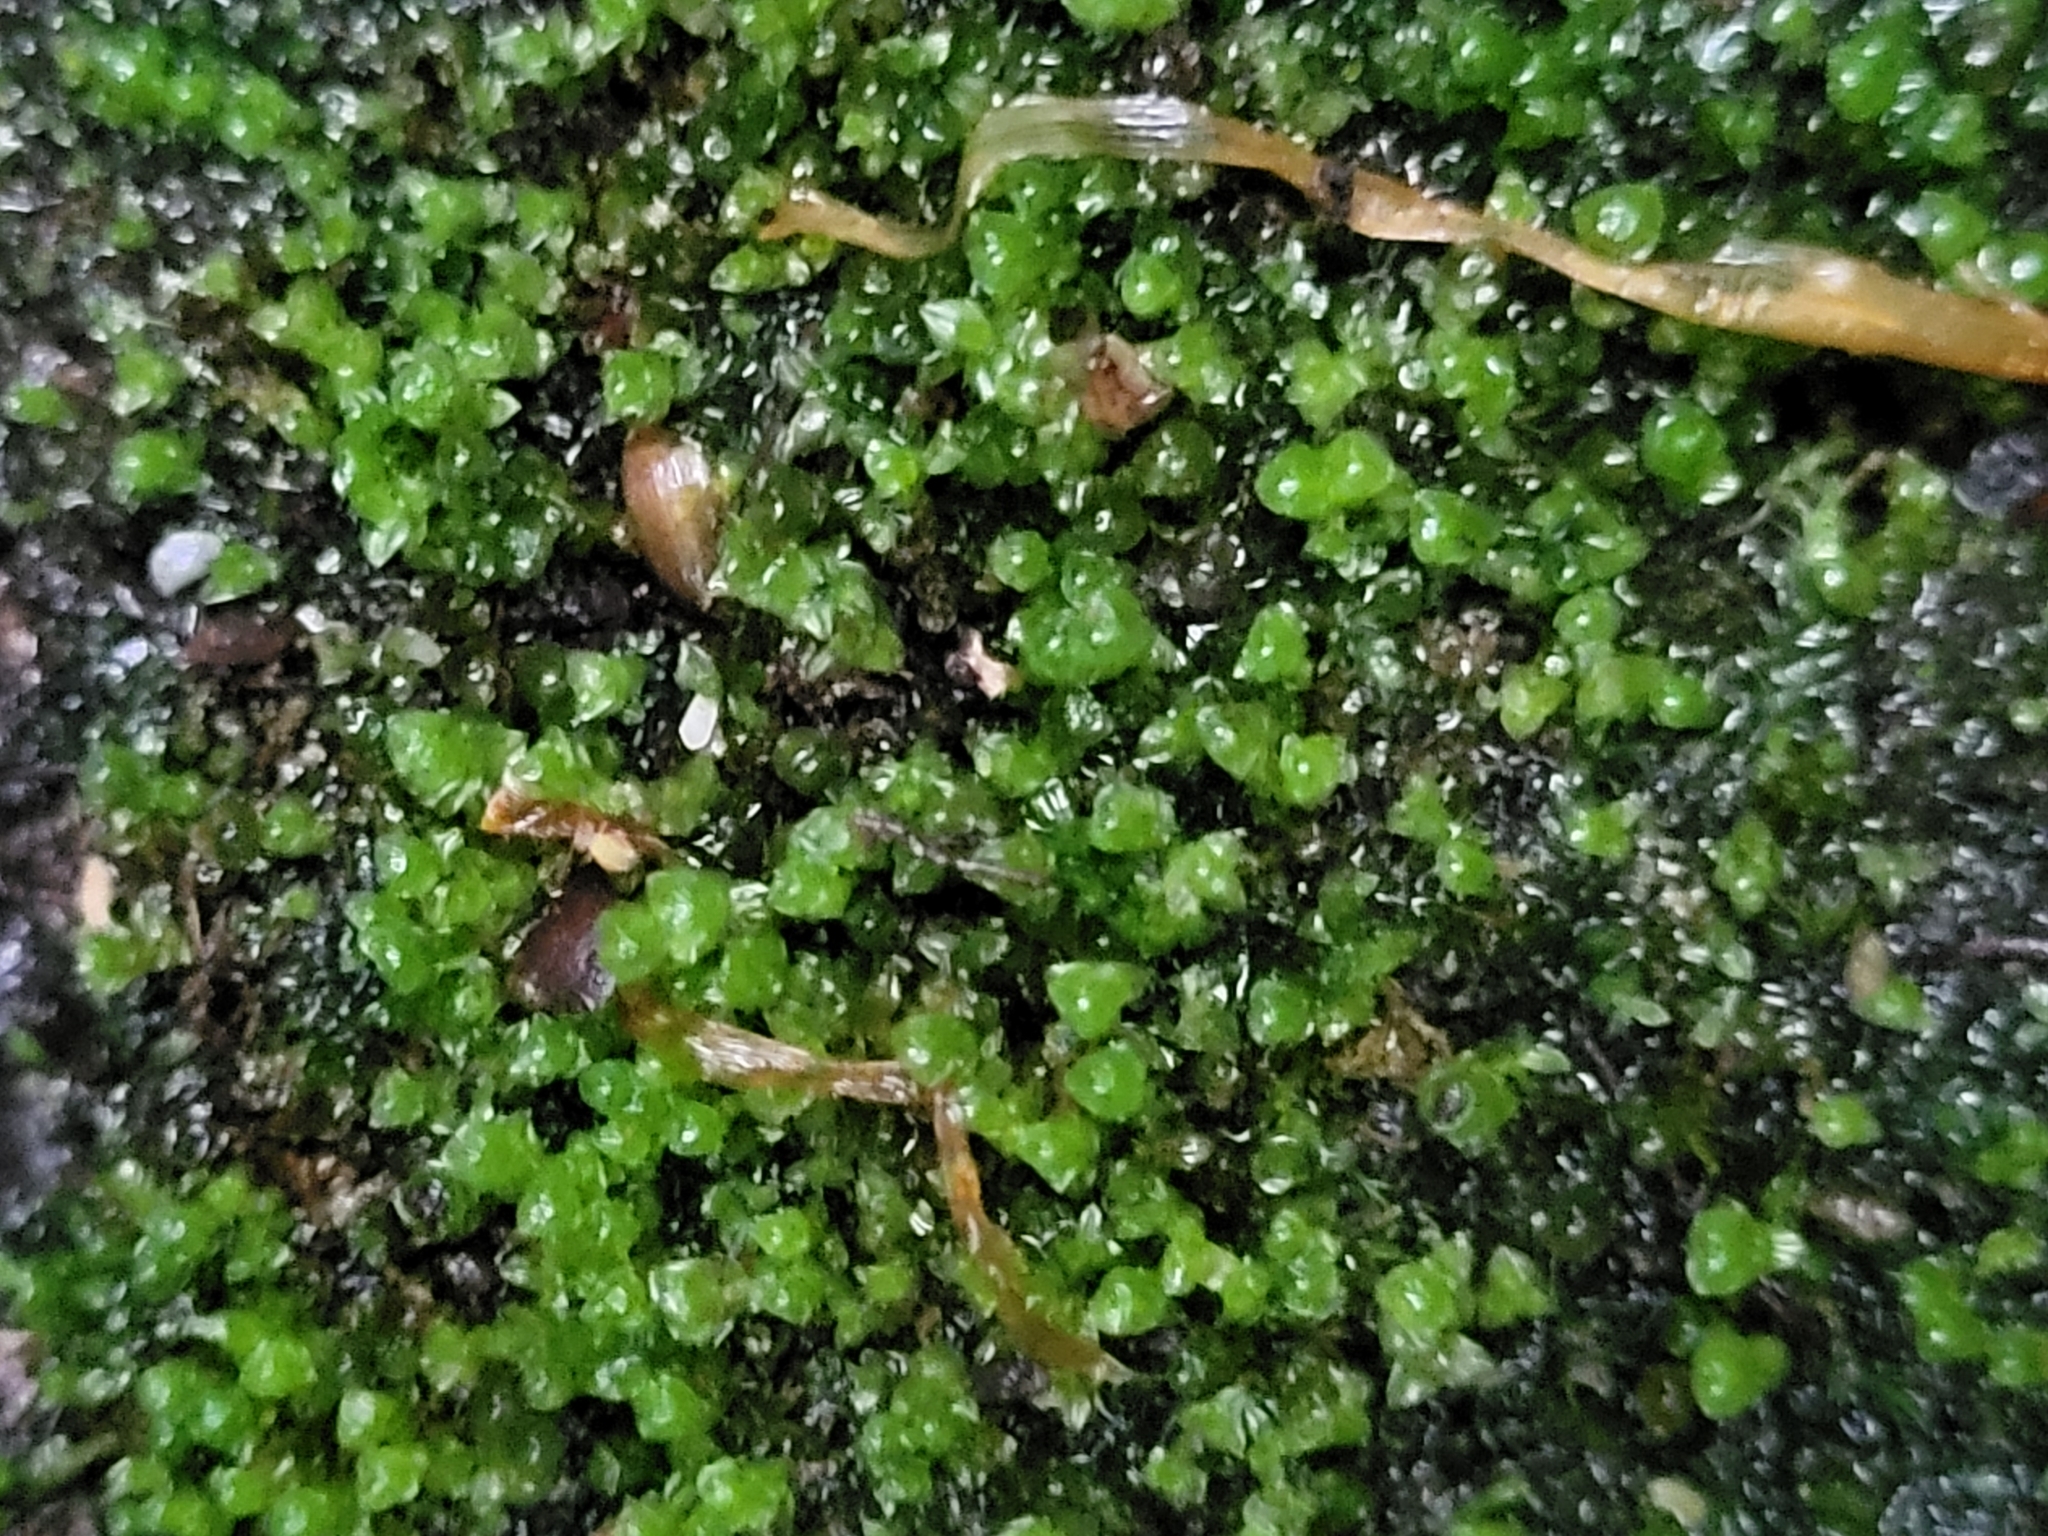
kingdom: Plantae
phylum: Bryophyta
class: Polytrichopsida
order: Tetraphidales
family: Tetraphidaceae
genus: Tetraphis
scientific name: Tetraphis pellucida
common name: Common four-toothed moss
